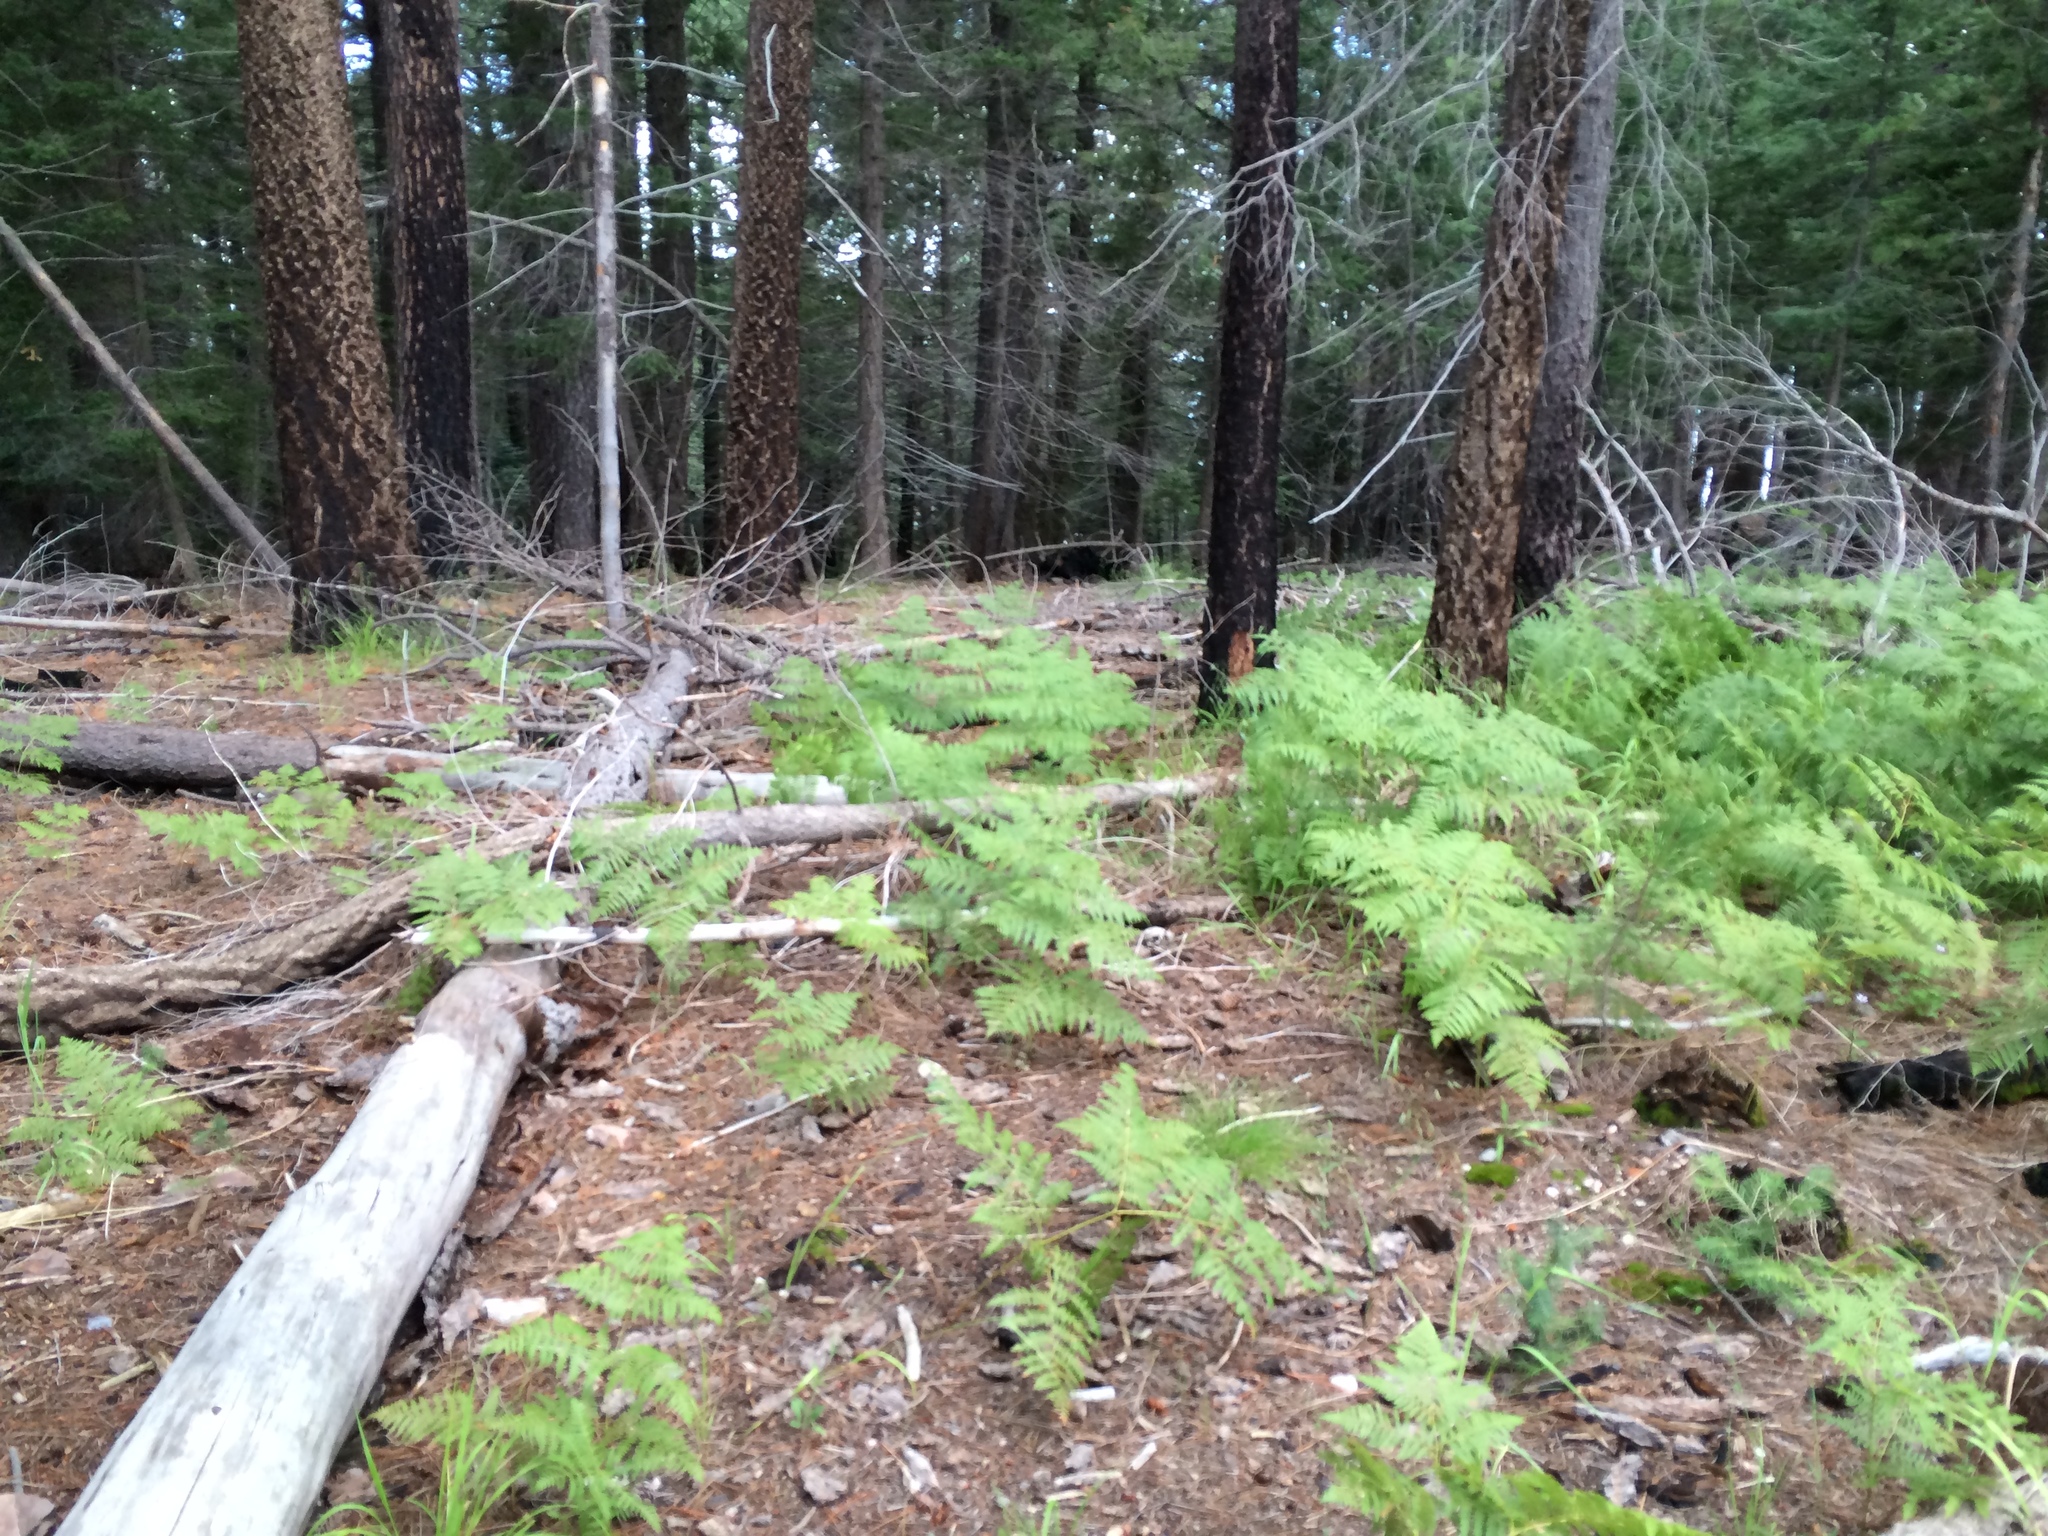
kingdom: Plantae
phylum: Tracheophyta
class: Polypodiopsida
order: Polypodiales
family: Dennstaedtiaceae
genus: Pteridium
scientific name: Pteridium aquilinum
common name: Bracken
